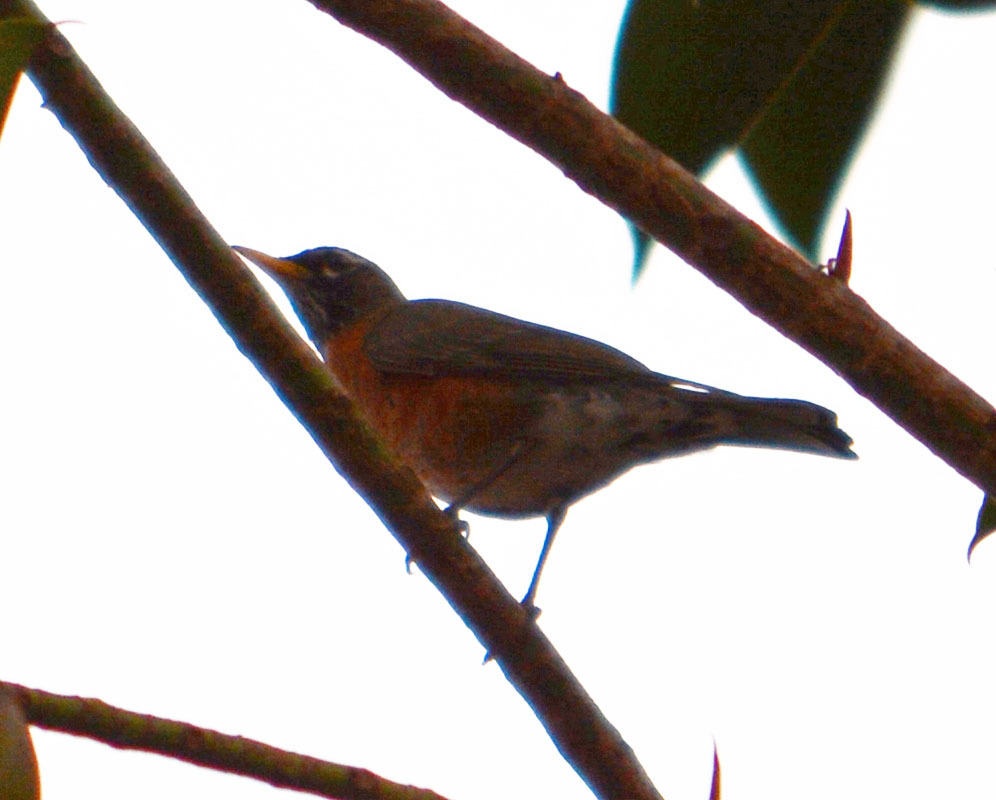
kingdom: Animalia
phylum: Chordata
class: Aves
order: Passeriformes
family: Turdidae
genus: Turdus
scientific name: Turdus migratorius
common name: American robin
